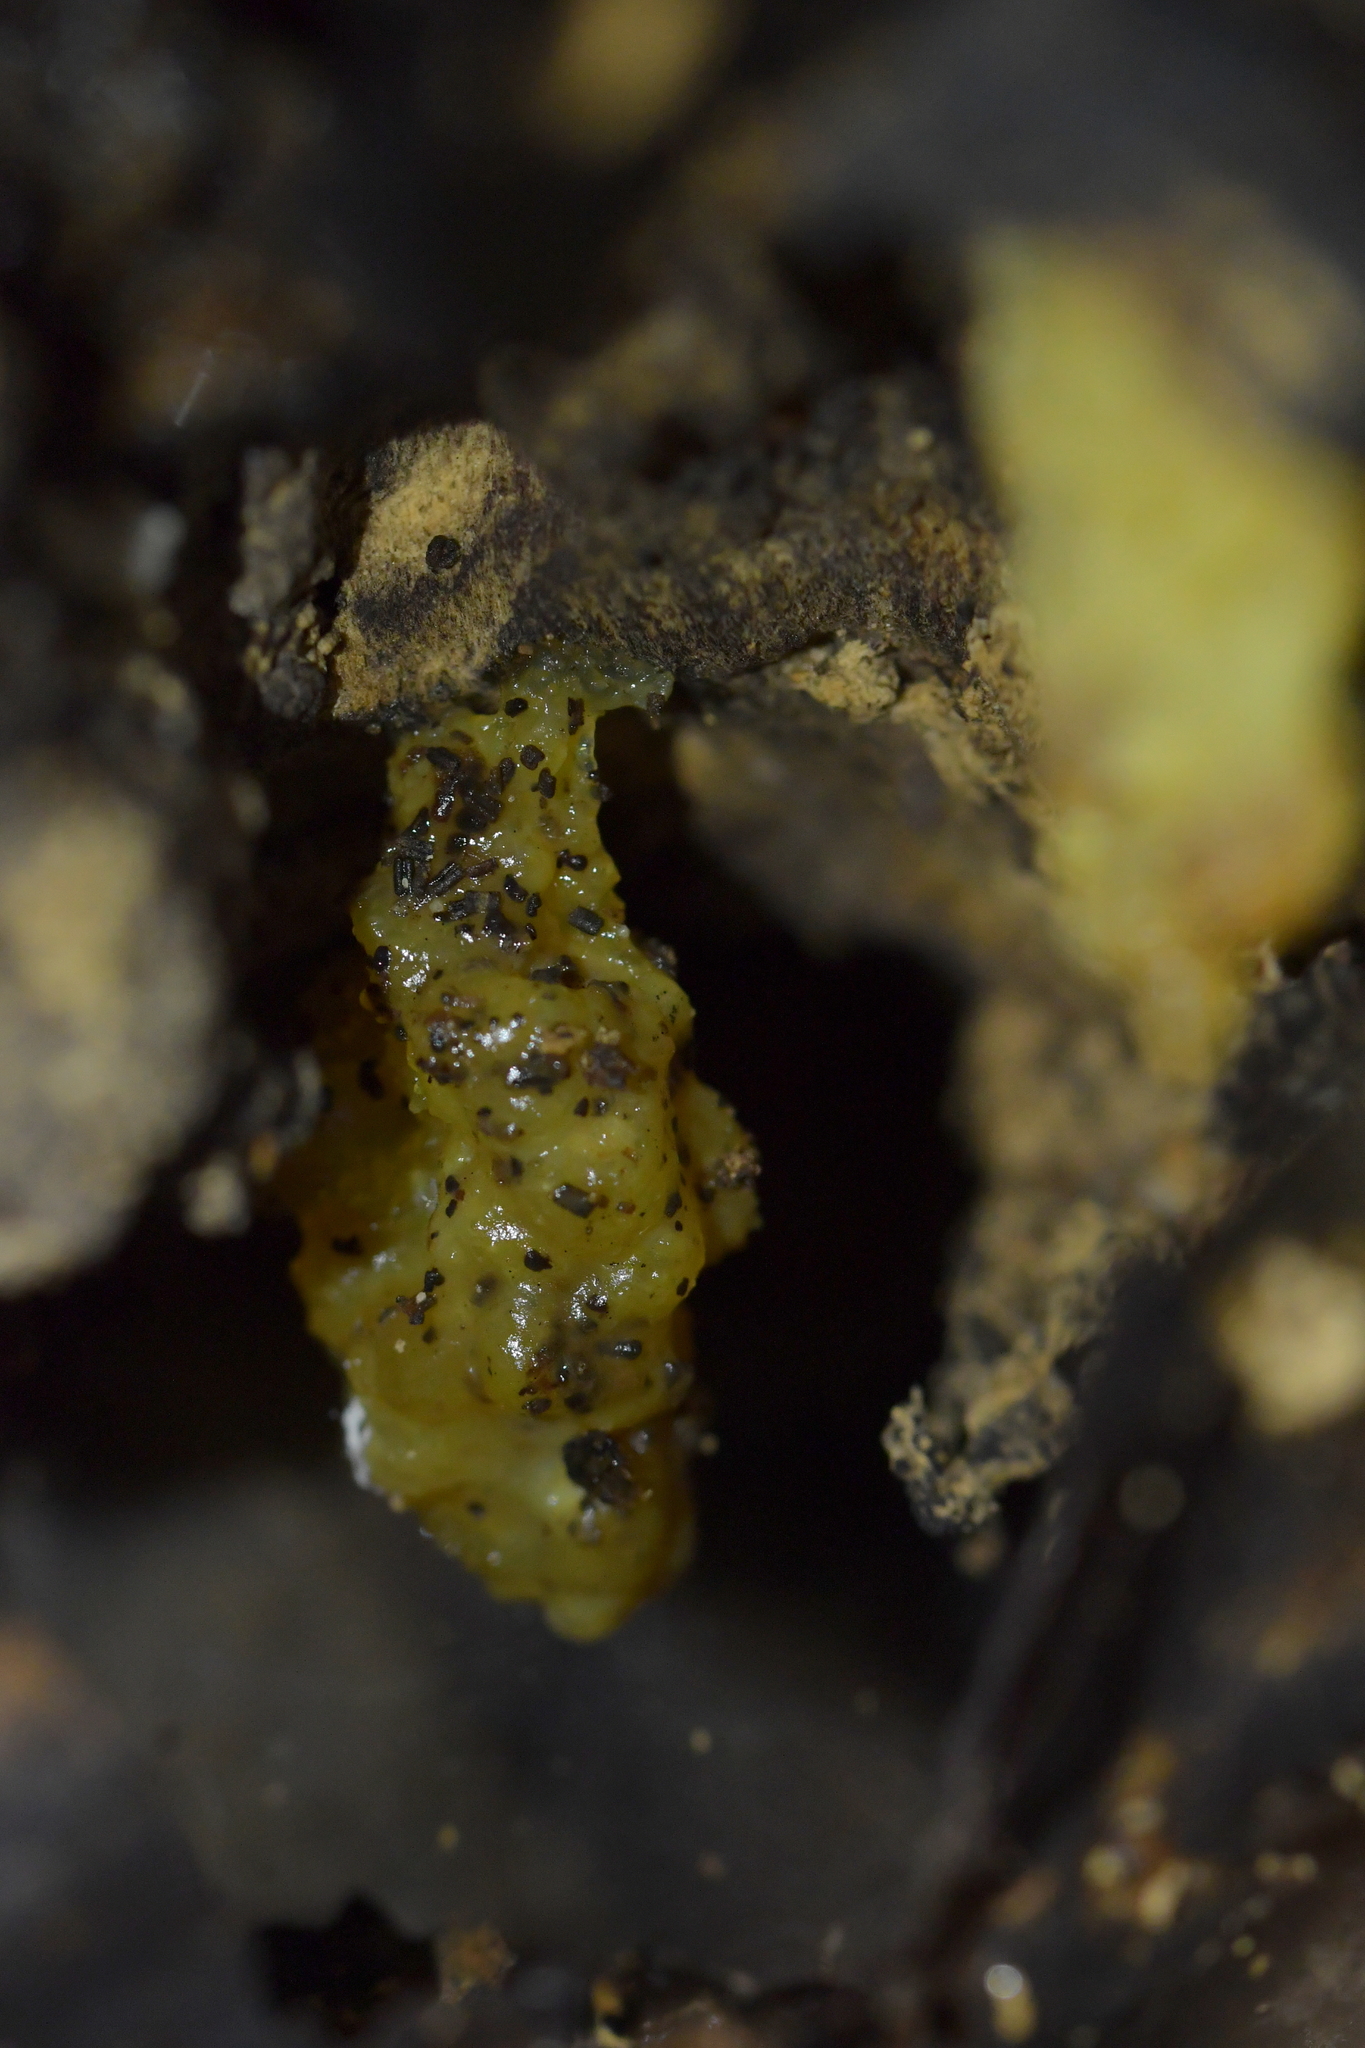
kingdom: Animalia
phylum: Mollusca
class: Gastropoda
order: Stylommatophora
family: Athoracophoridae
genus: Athoracophorus
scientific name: Athoracophorus papillatus
